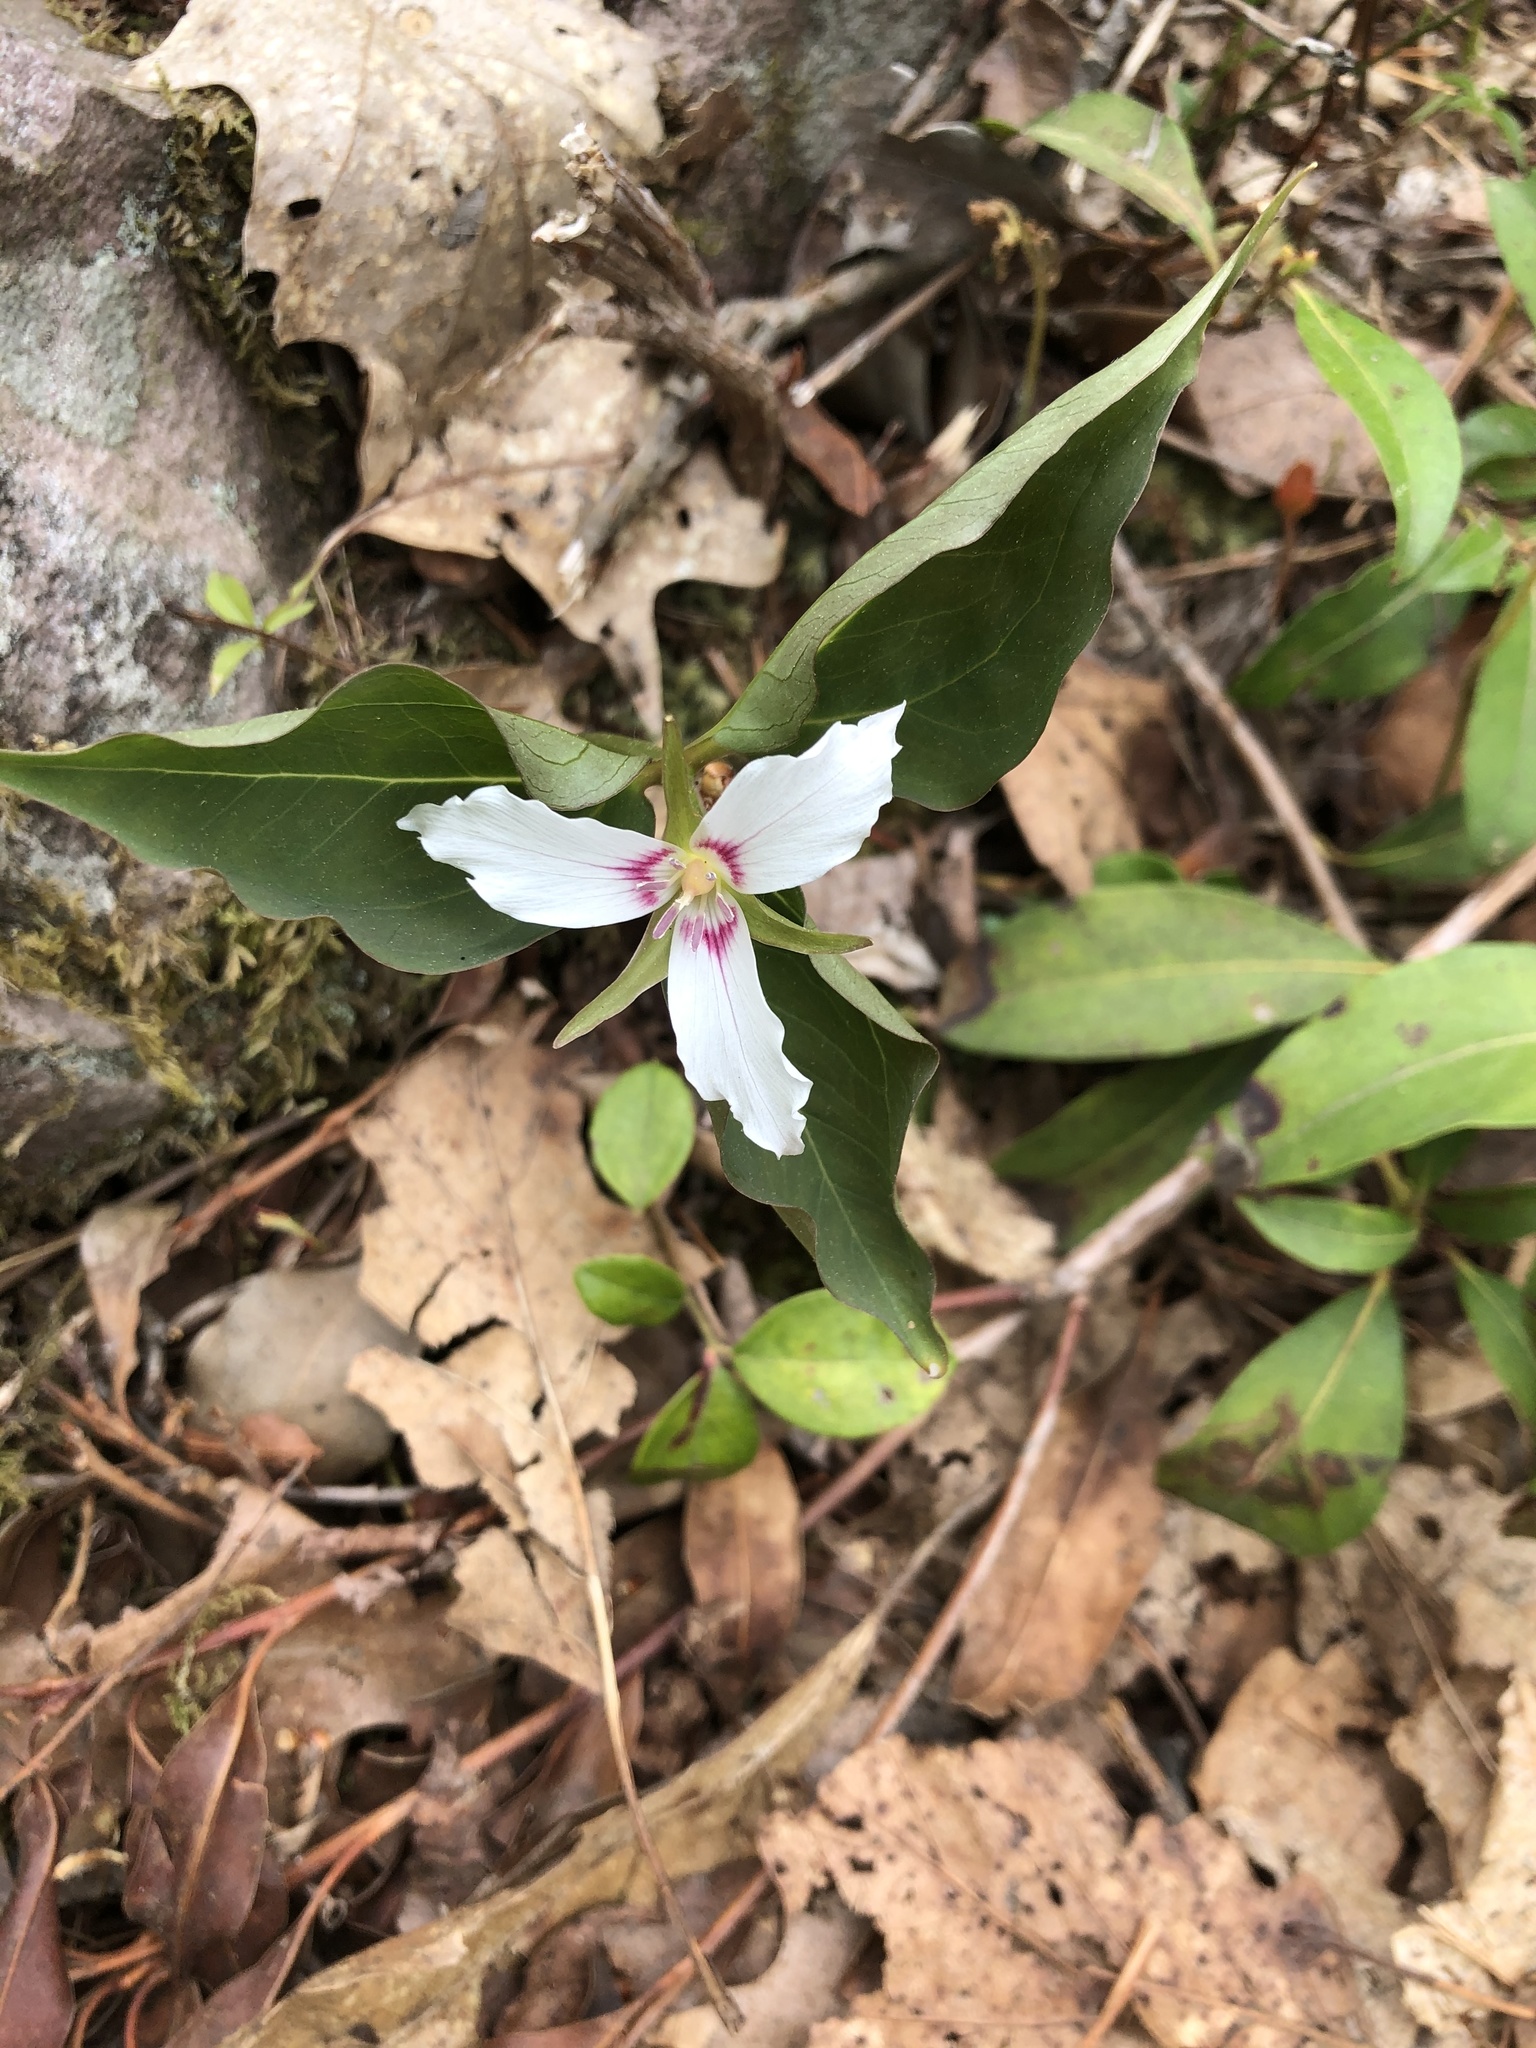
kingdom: Plantae
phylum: Tracheophyta
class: Liliopsida
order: Liliales
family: Melanthiaceae
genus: Trillium
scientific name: Trillium undulatum
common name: Paint trillium
